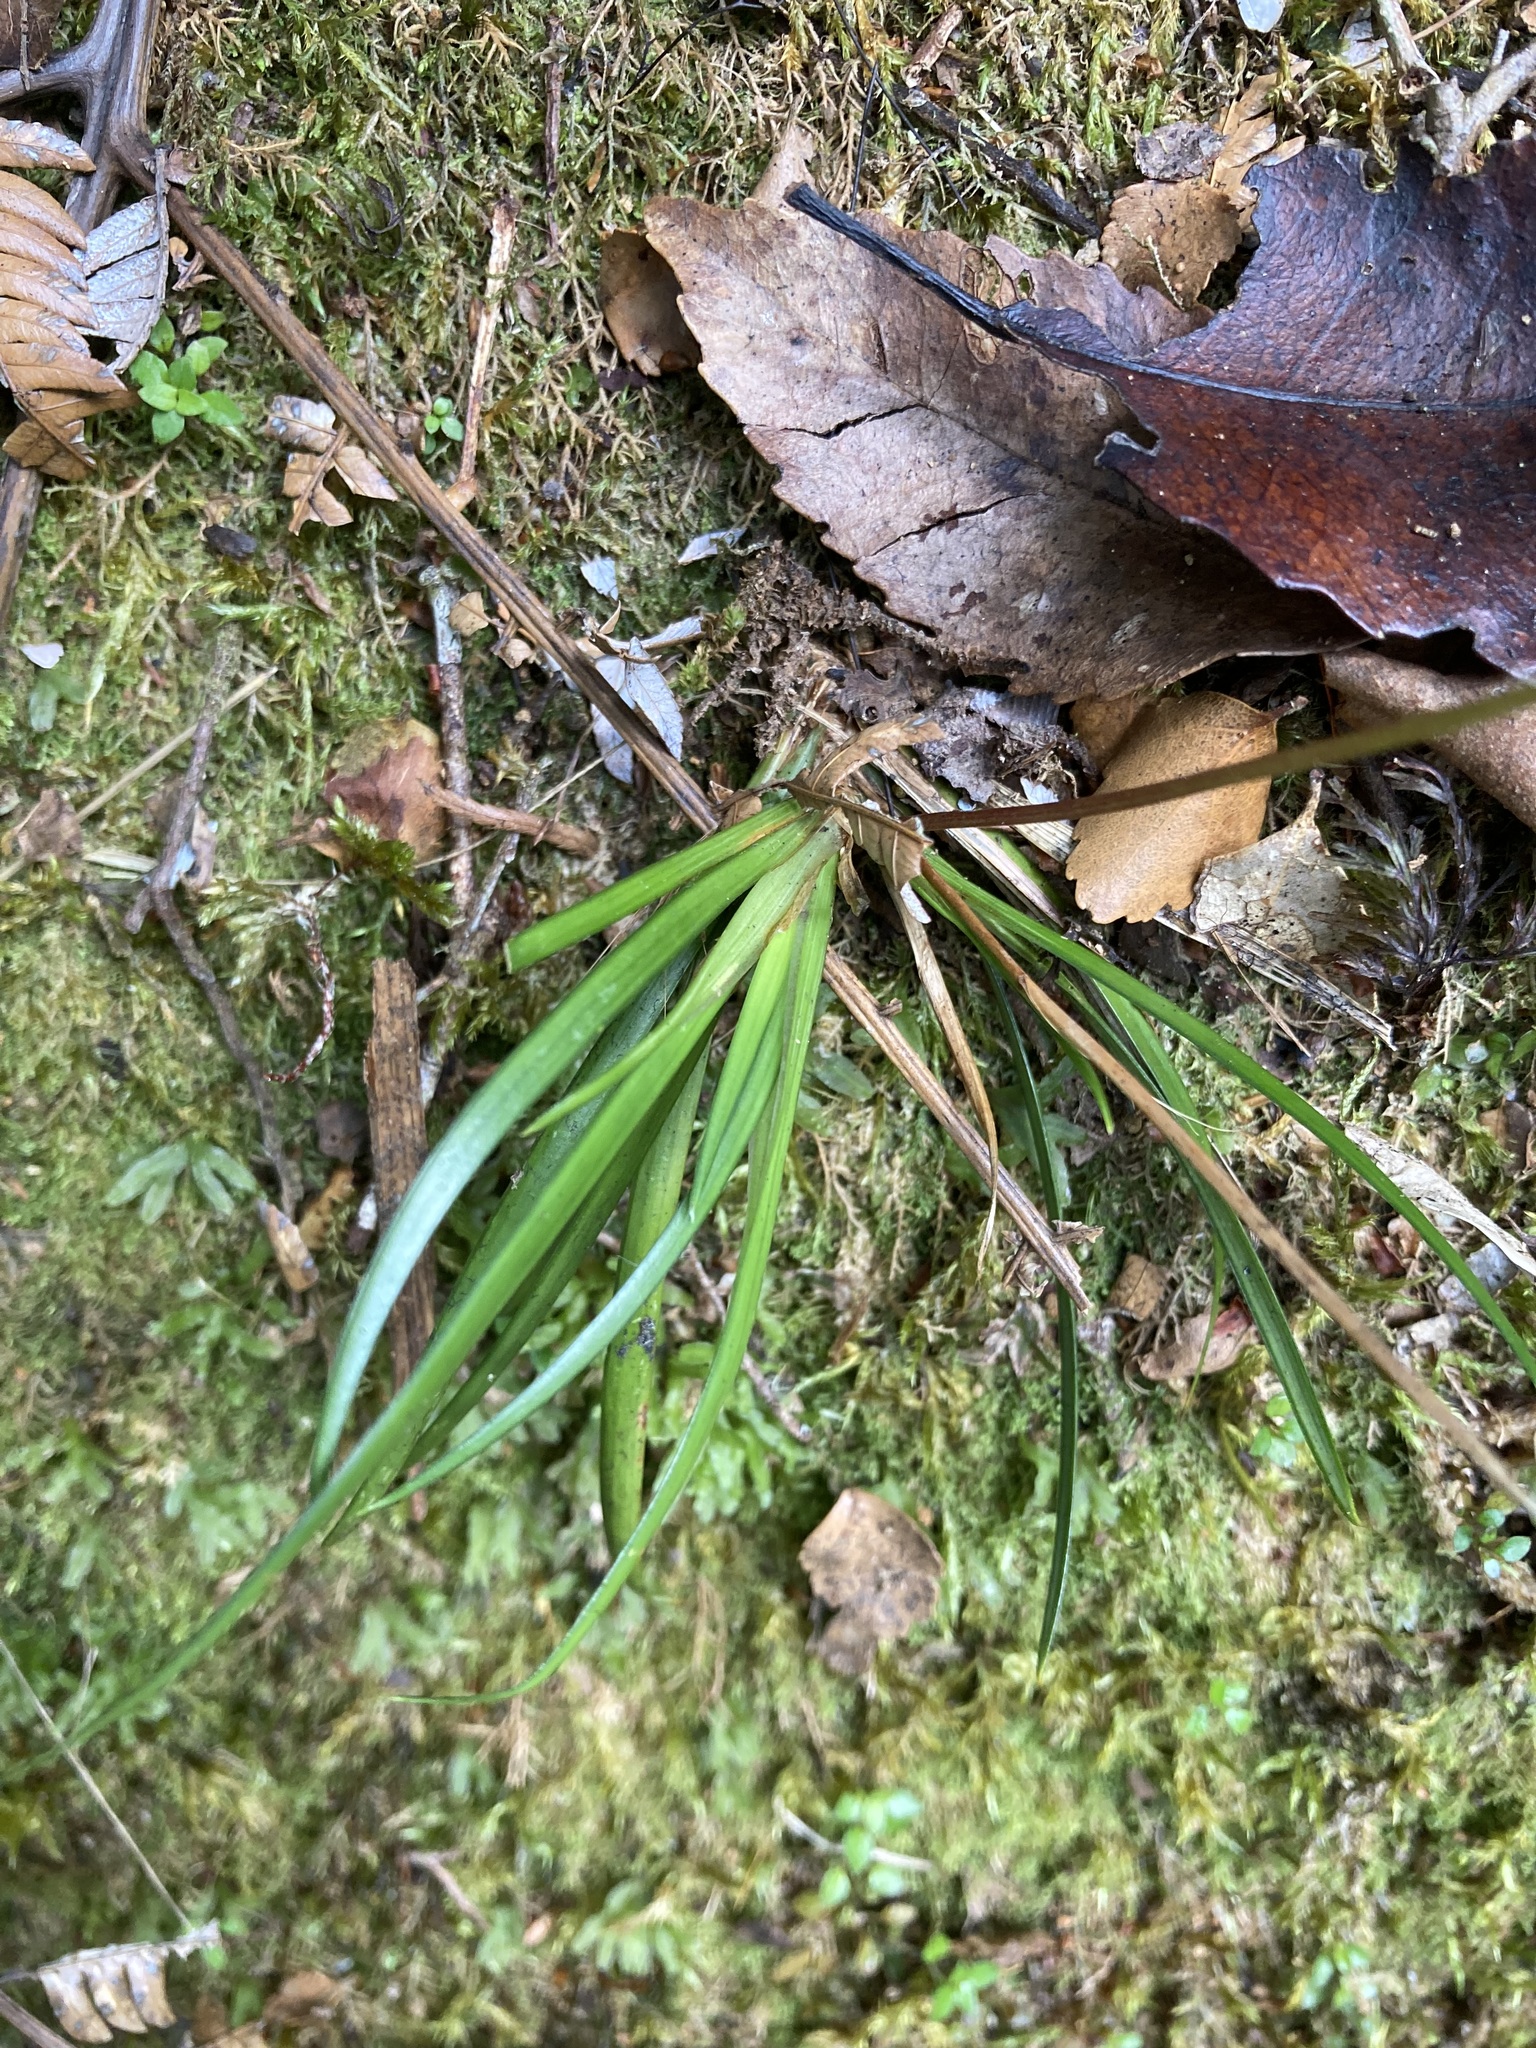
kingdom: Plantae
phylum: Tracheophyta
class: Liliopsida
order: Asparagales
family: Iridaceae
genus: Libertia
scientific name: Libertia micrantha
